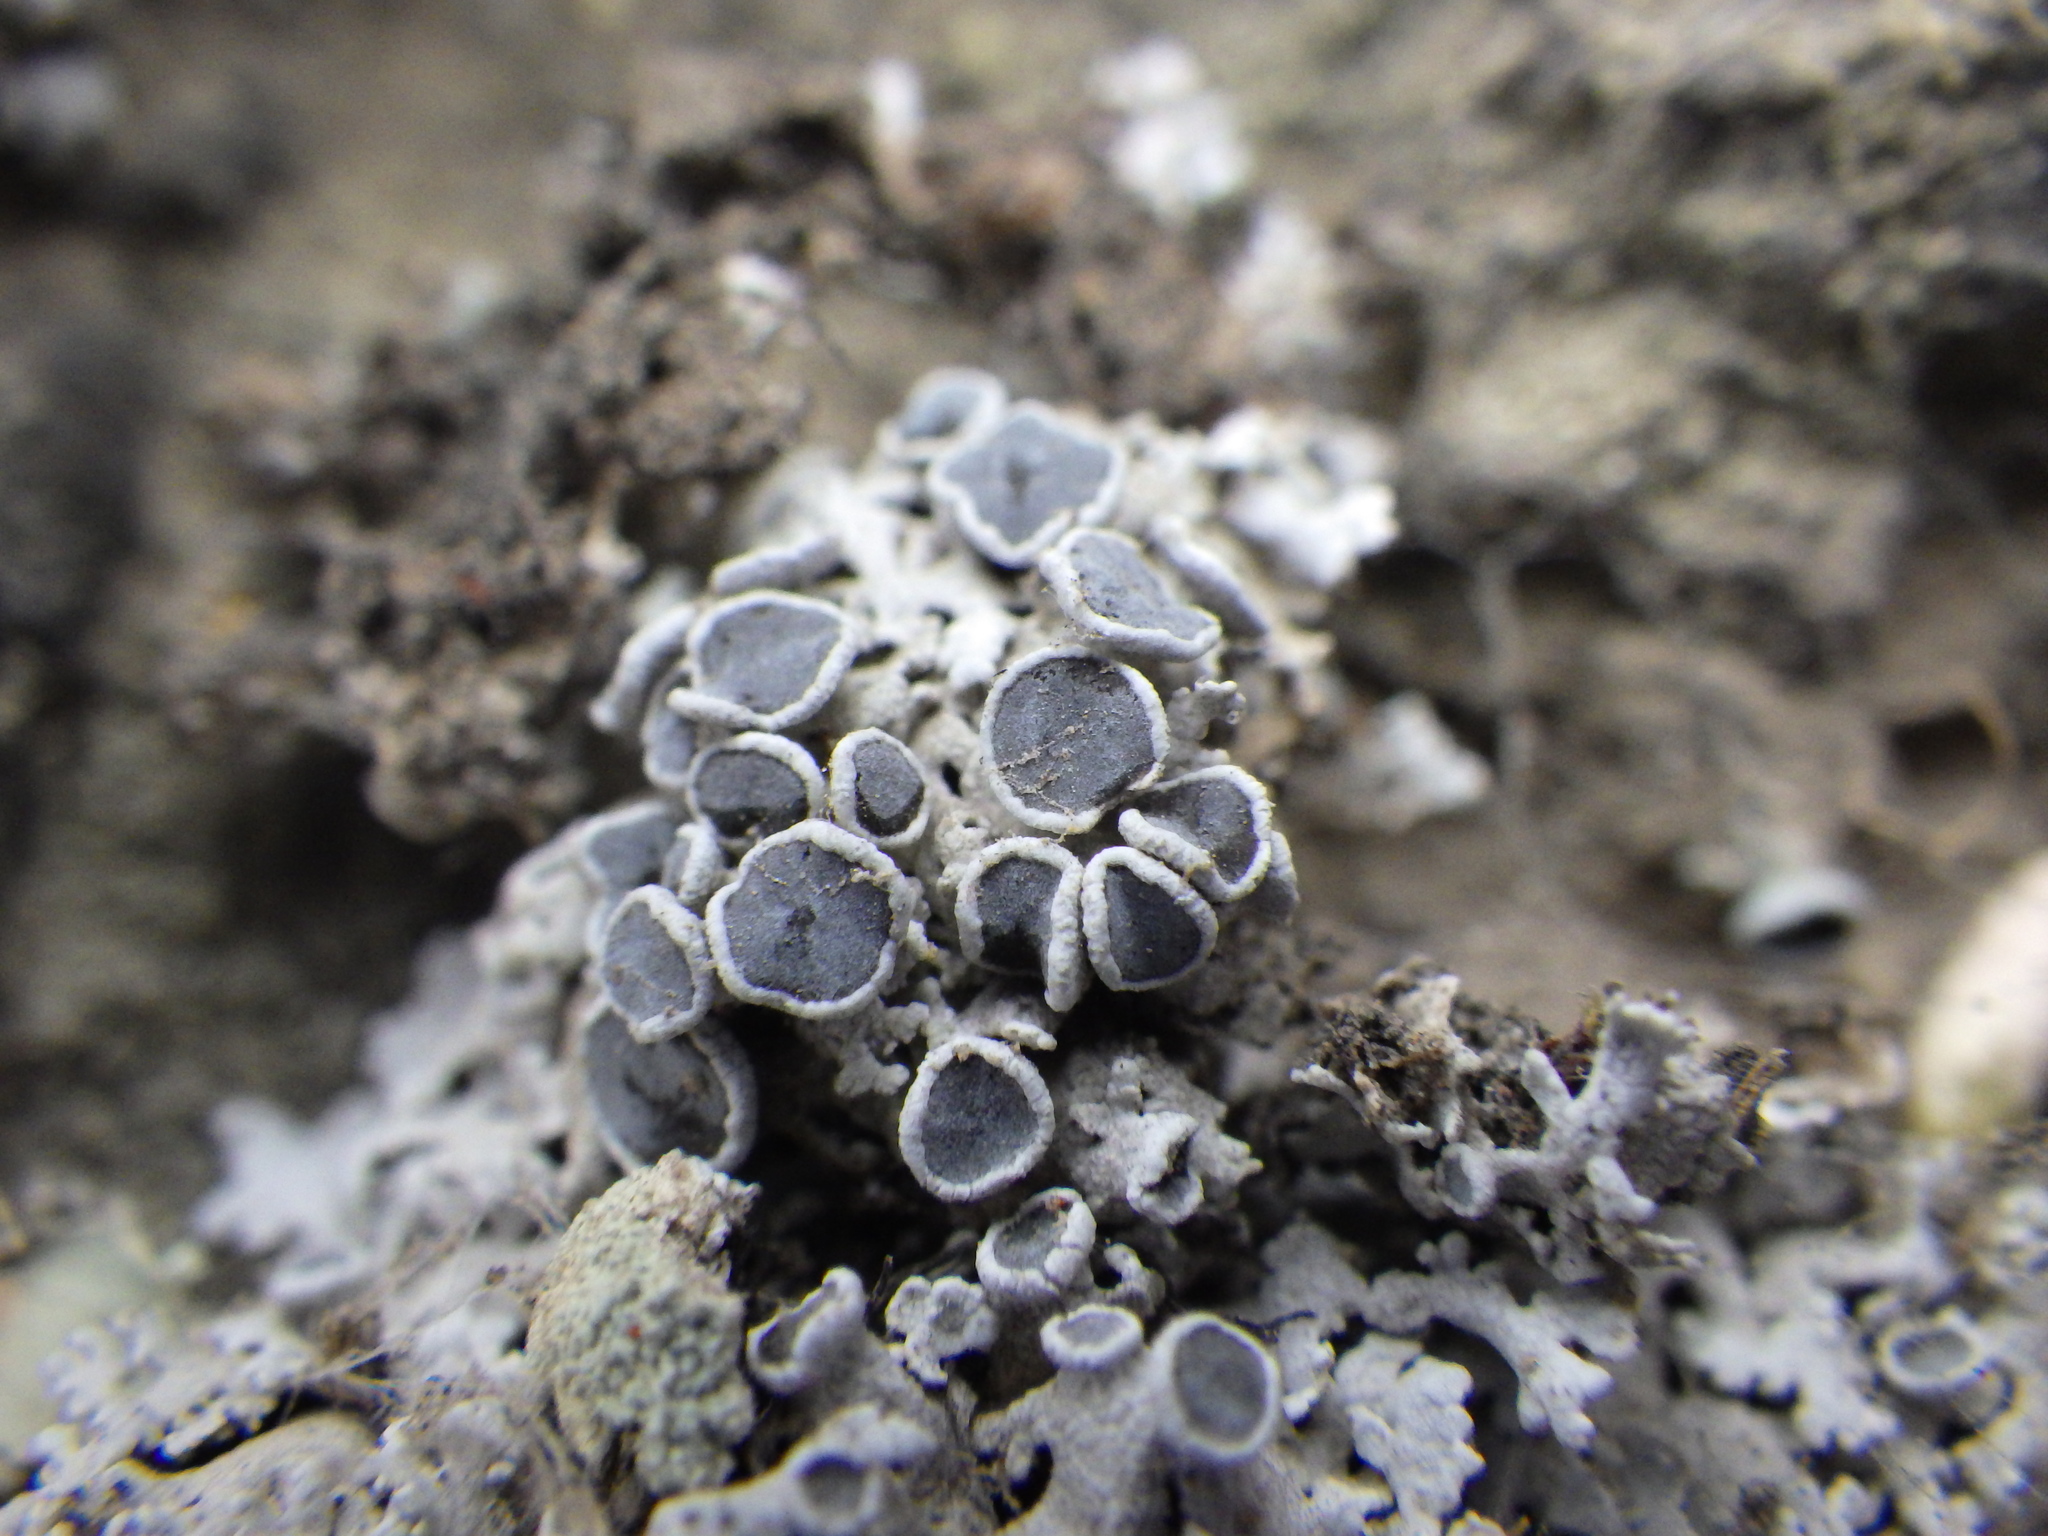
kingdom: Fungi
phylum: Ascomycota
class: Lecanoromycetes
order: Caliciales
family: Physciaceae
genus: Physcia
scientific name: Physcia stellaris
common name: Star rosette lichen
